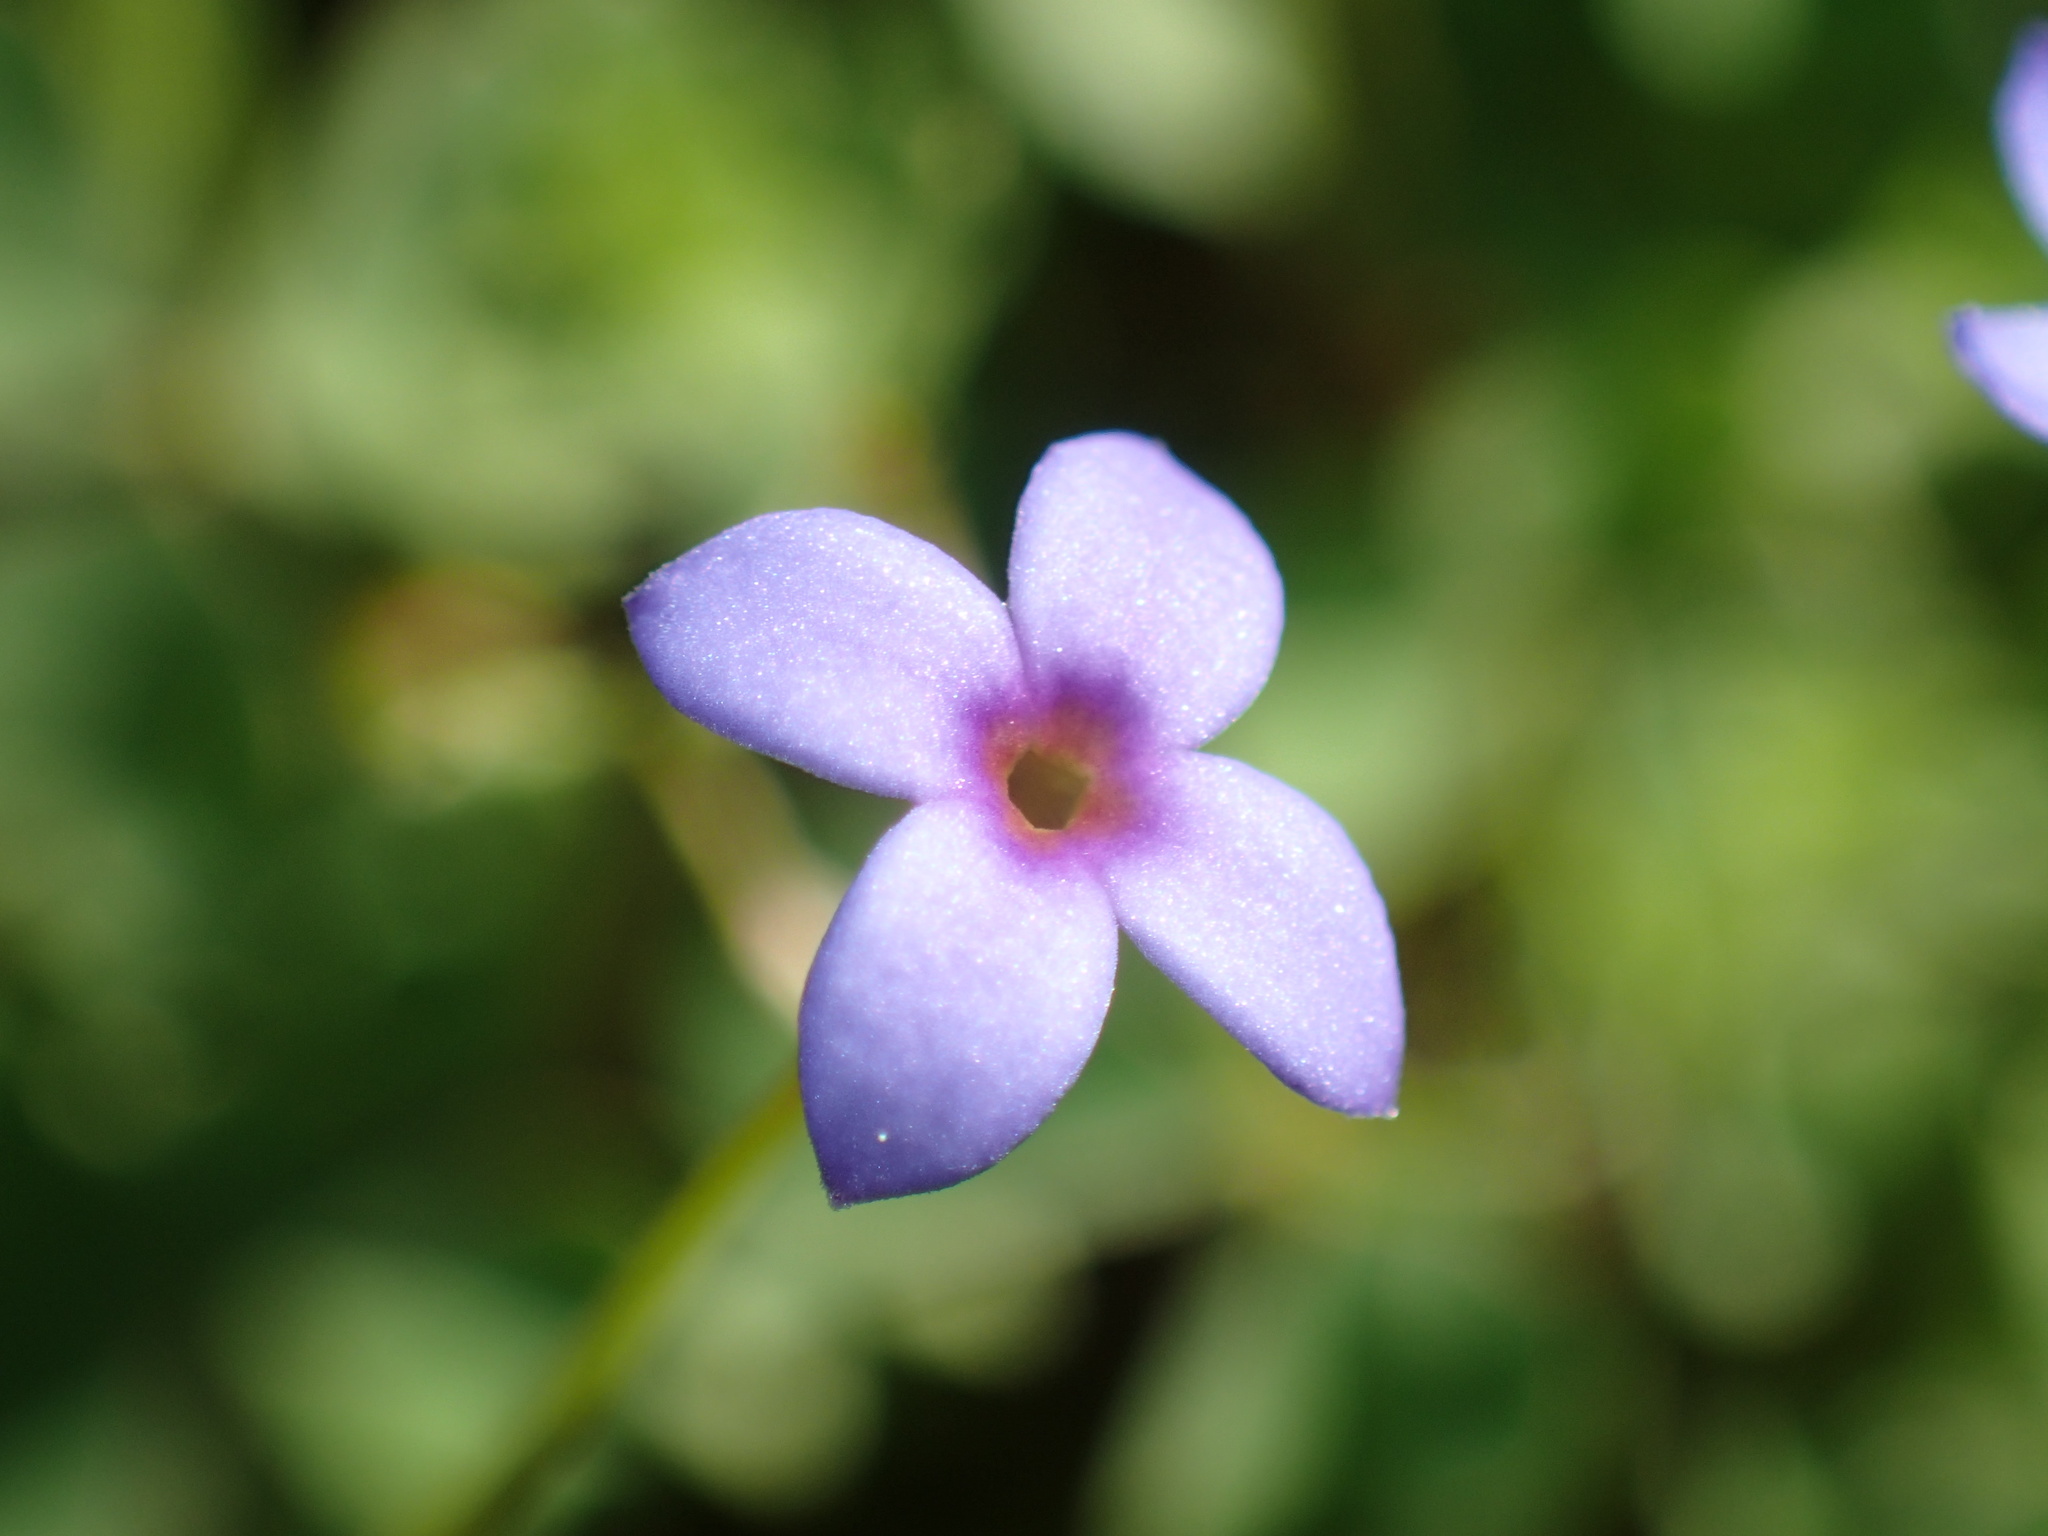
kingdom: Plantae
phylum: Tracheophyta
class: Magnoliopsida
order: Gentianales
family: Rubiaceae
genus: Houstonia
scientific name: Houstonia pusilla
